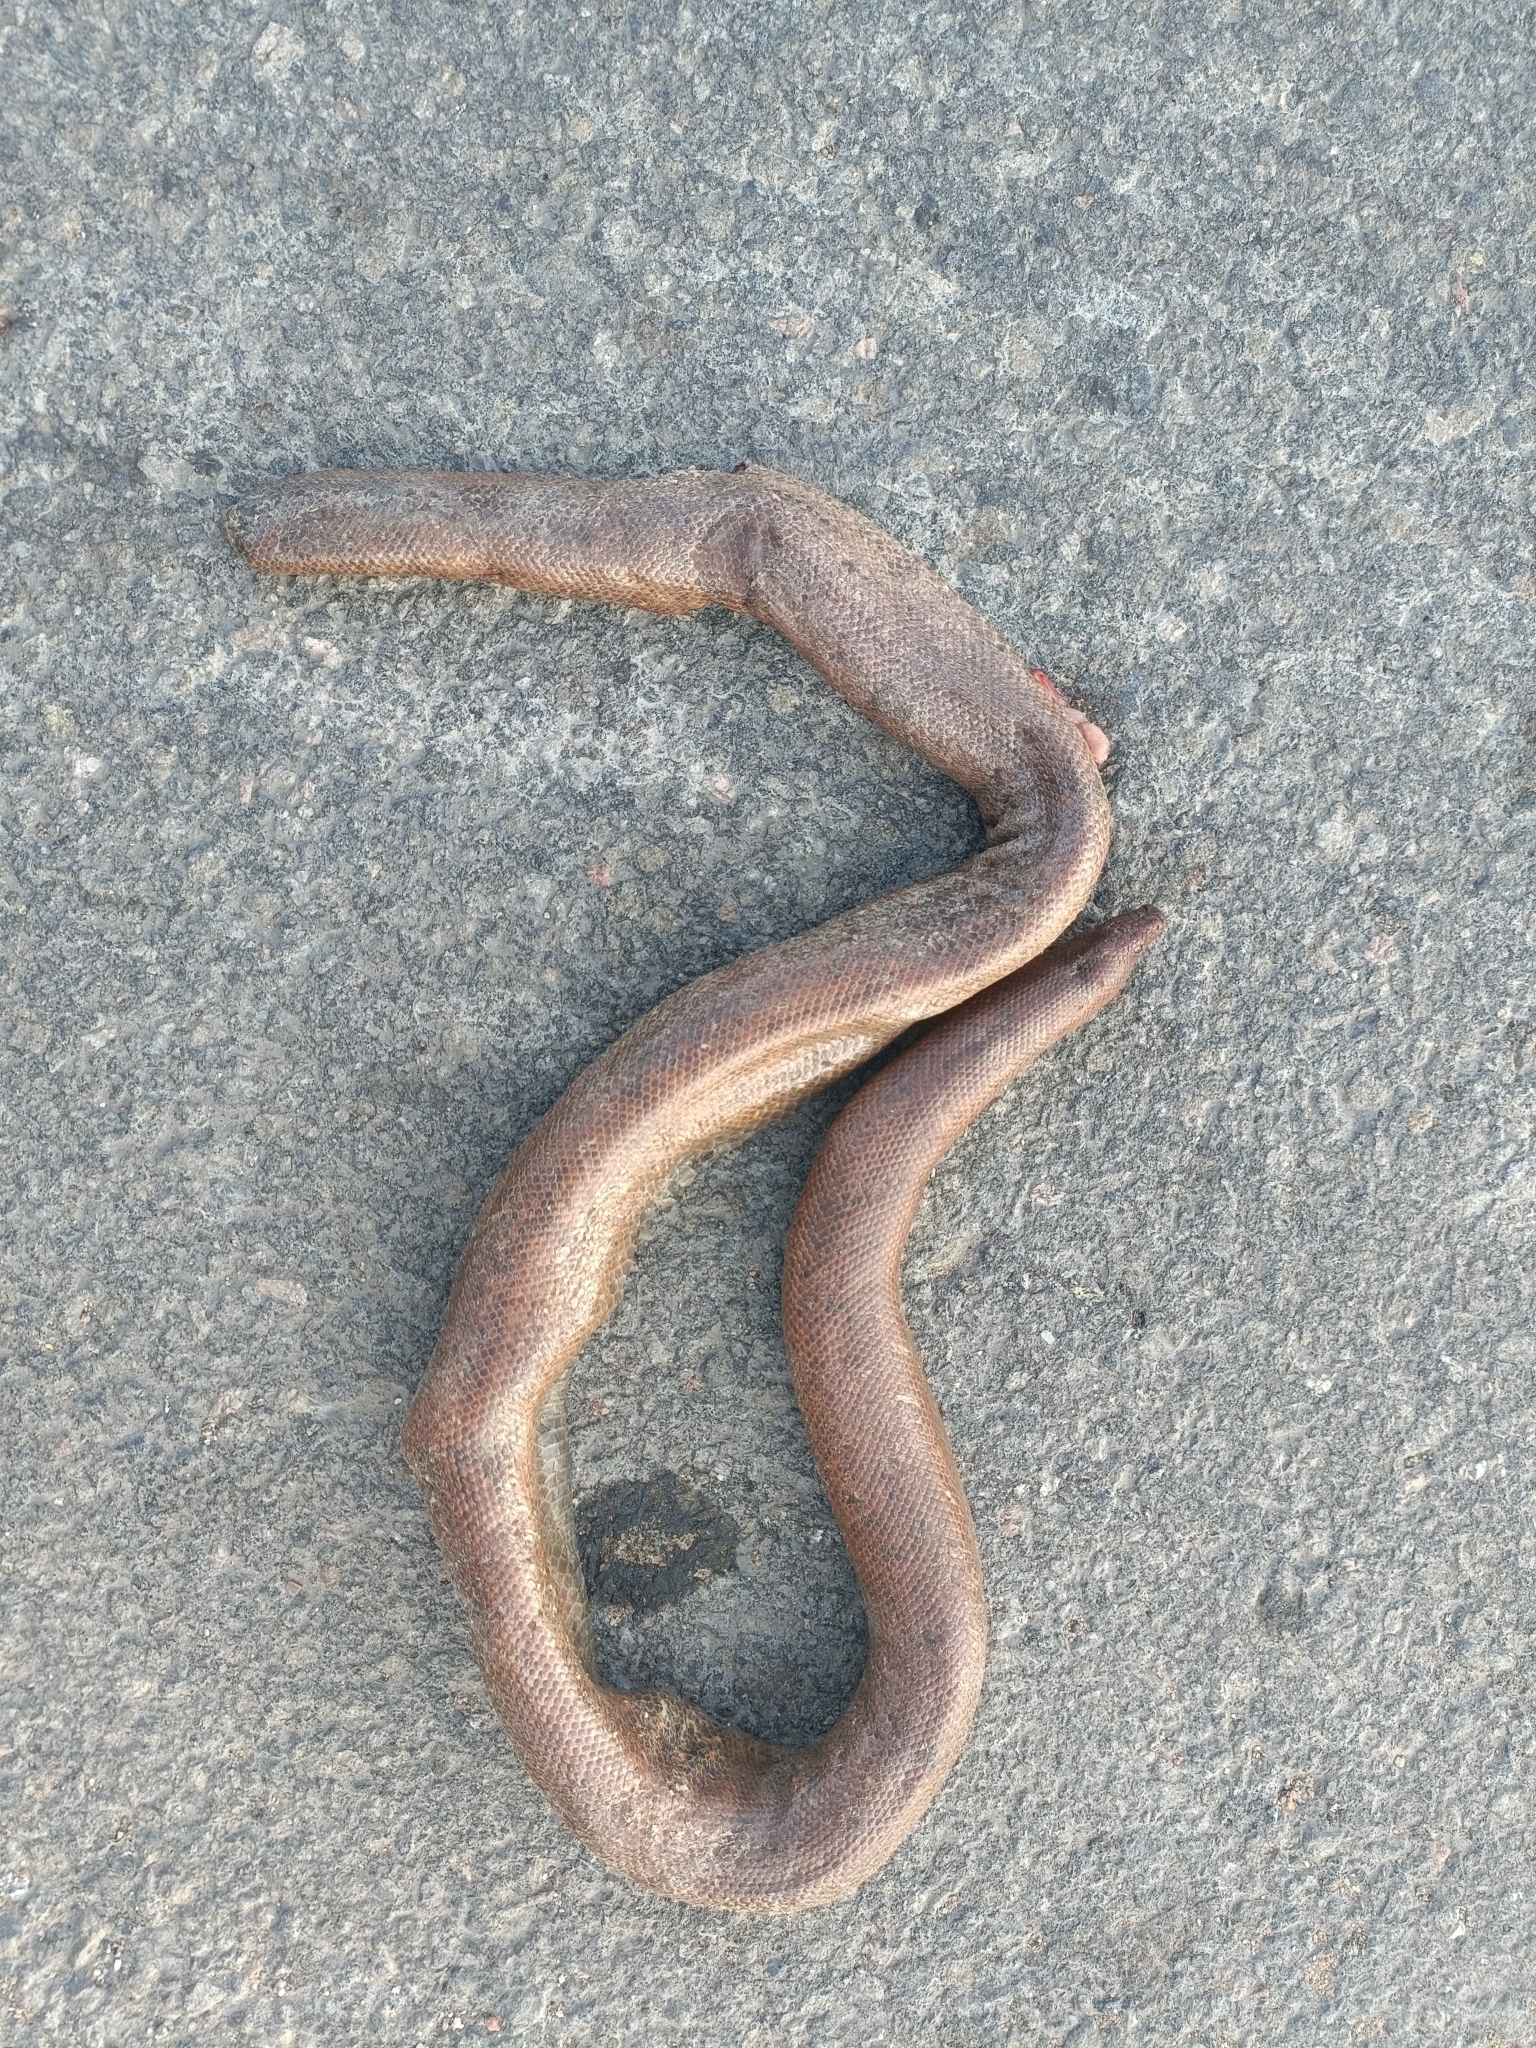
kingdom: Animalia
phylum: Chordata
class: Squamata
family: Boidae
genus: Eryx
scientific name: Eryx johnii
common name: Brown sand boa
